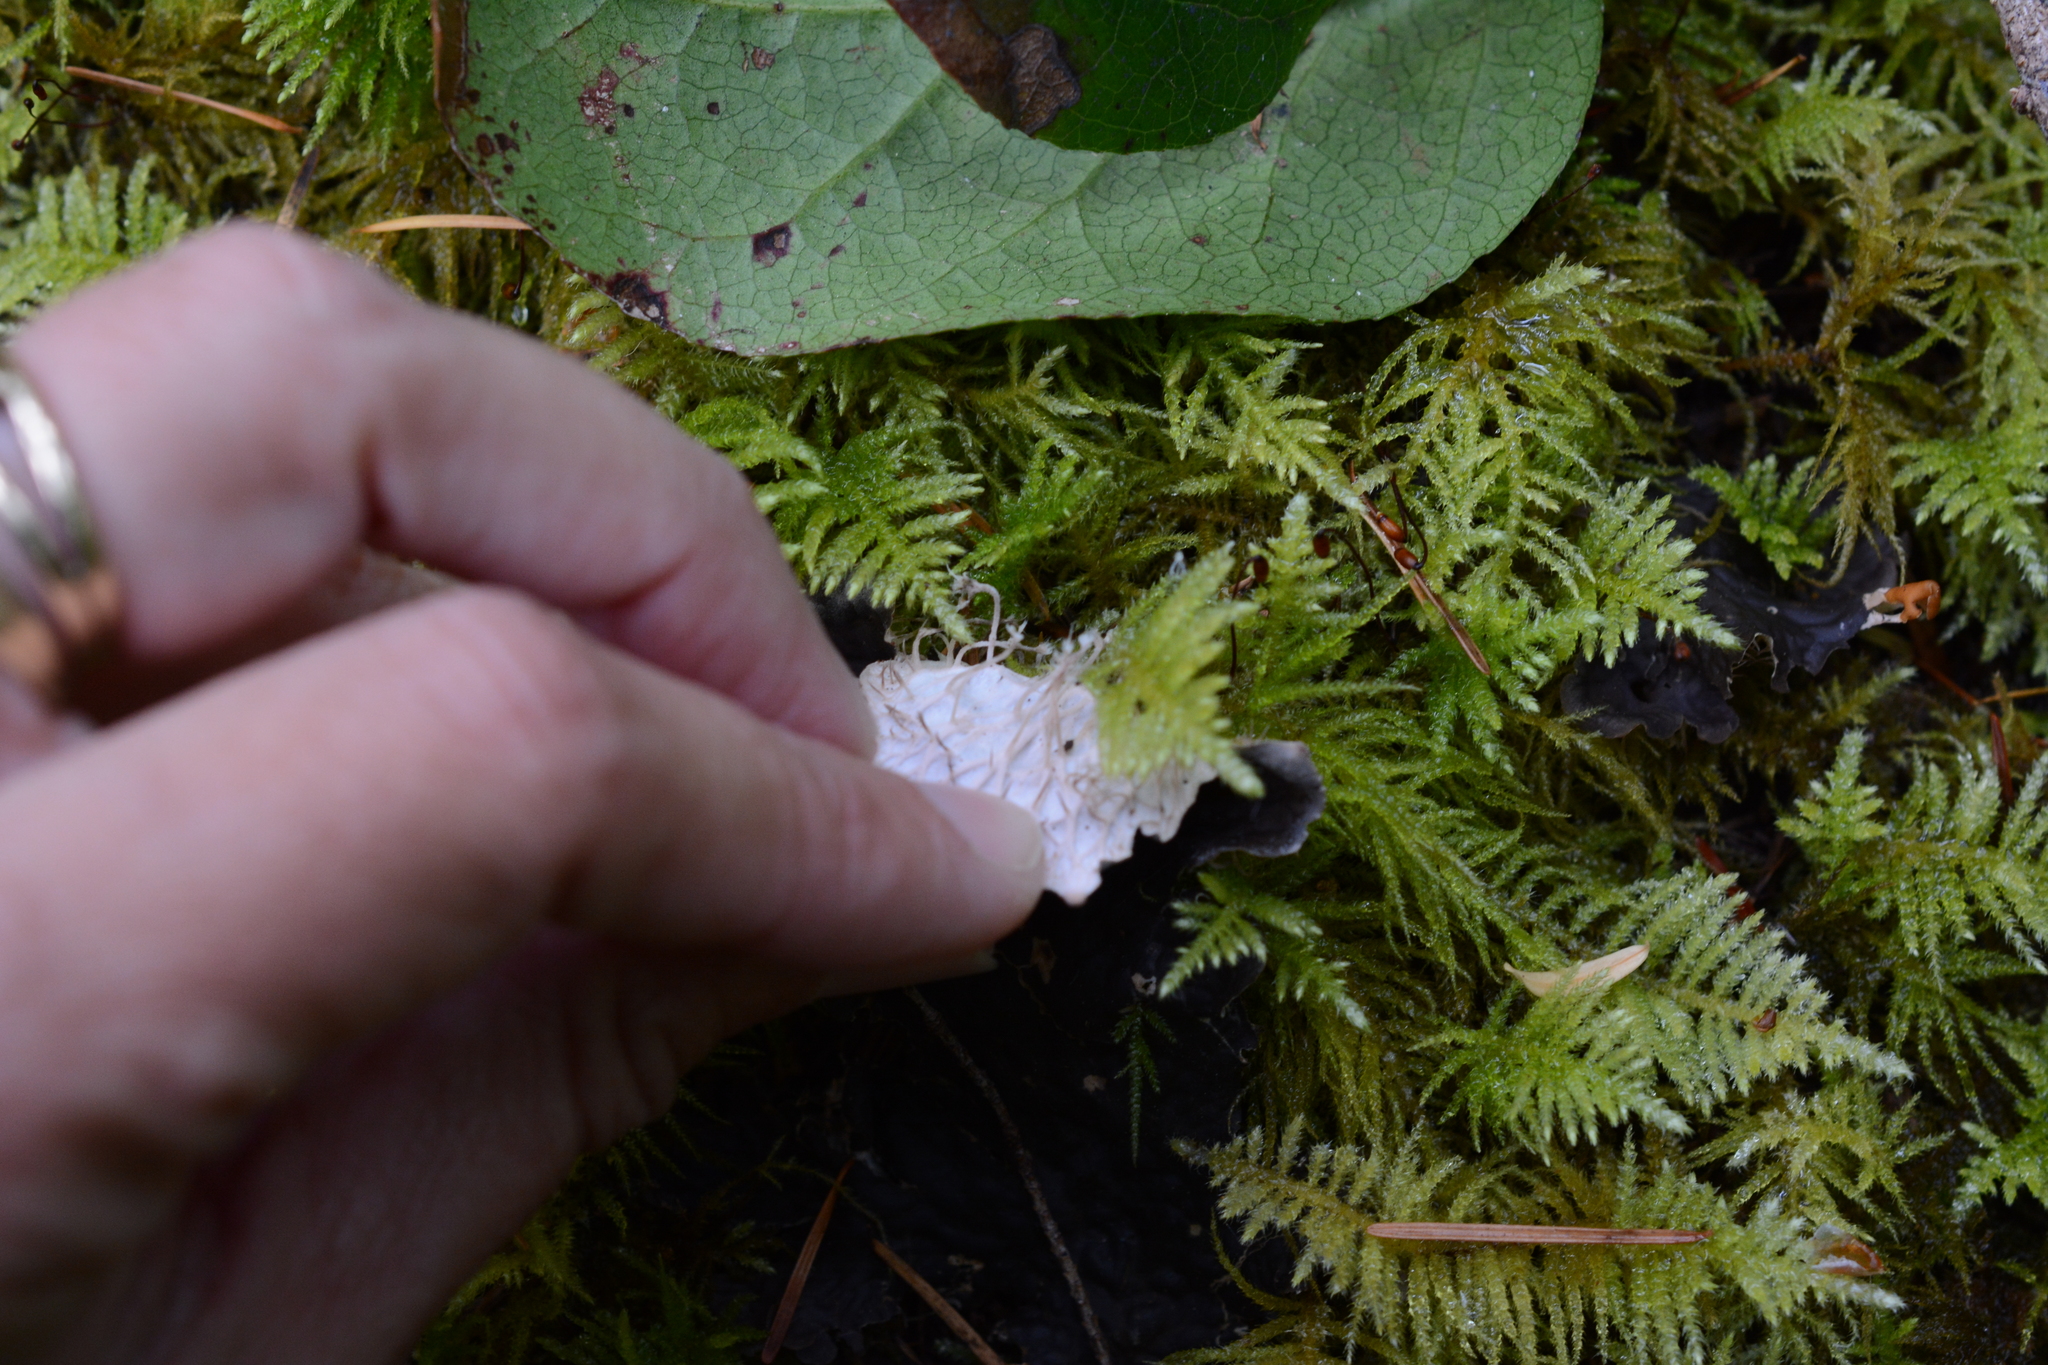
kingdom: Fungi
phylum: Ascomycota
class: Lecanoromycetes
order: Peltigerales
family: Peltigeraceae
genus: Peltigera
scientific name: Peltigera membranacea
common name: Membranous pelt lichen
